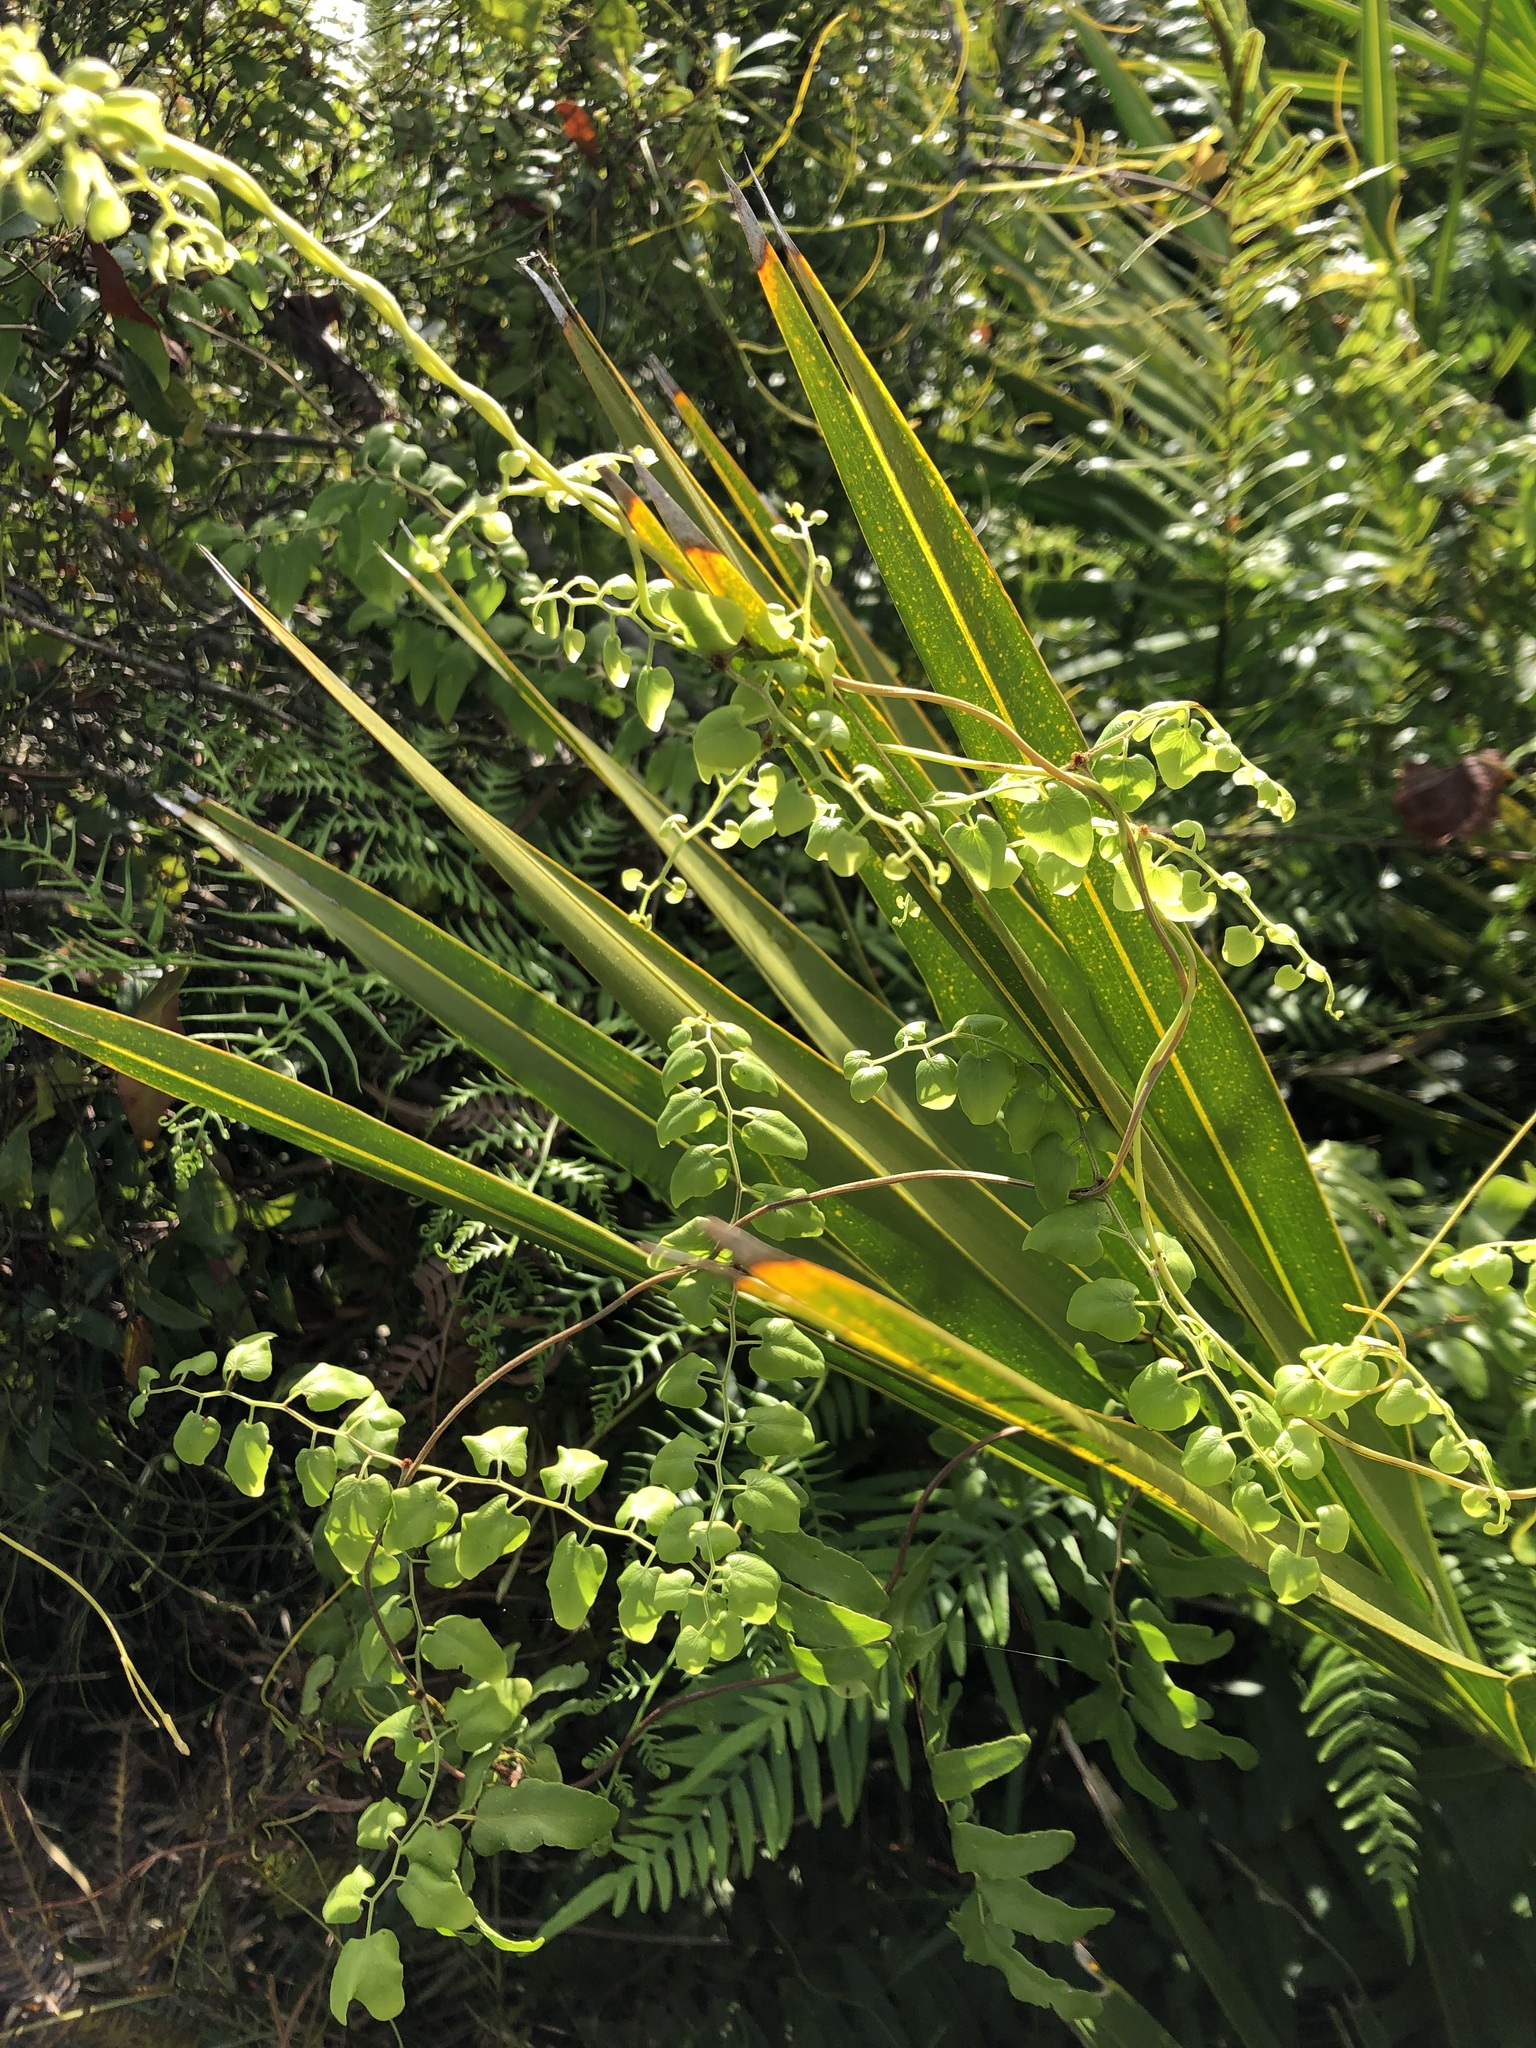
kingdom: Plantae
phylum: Tracheophyta
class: Polypodiopsida
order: Schizaeales
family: Lygodiaceae
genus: Lygodium
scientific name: Lygodium microphyllum
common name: Small-leaf climbing fern
